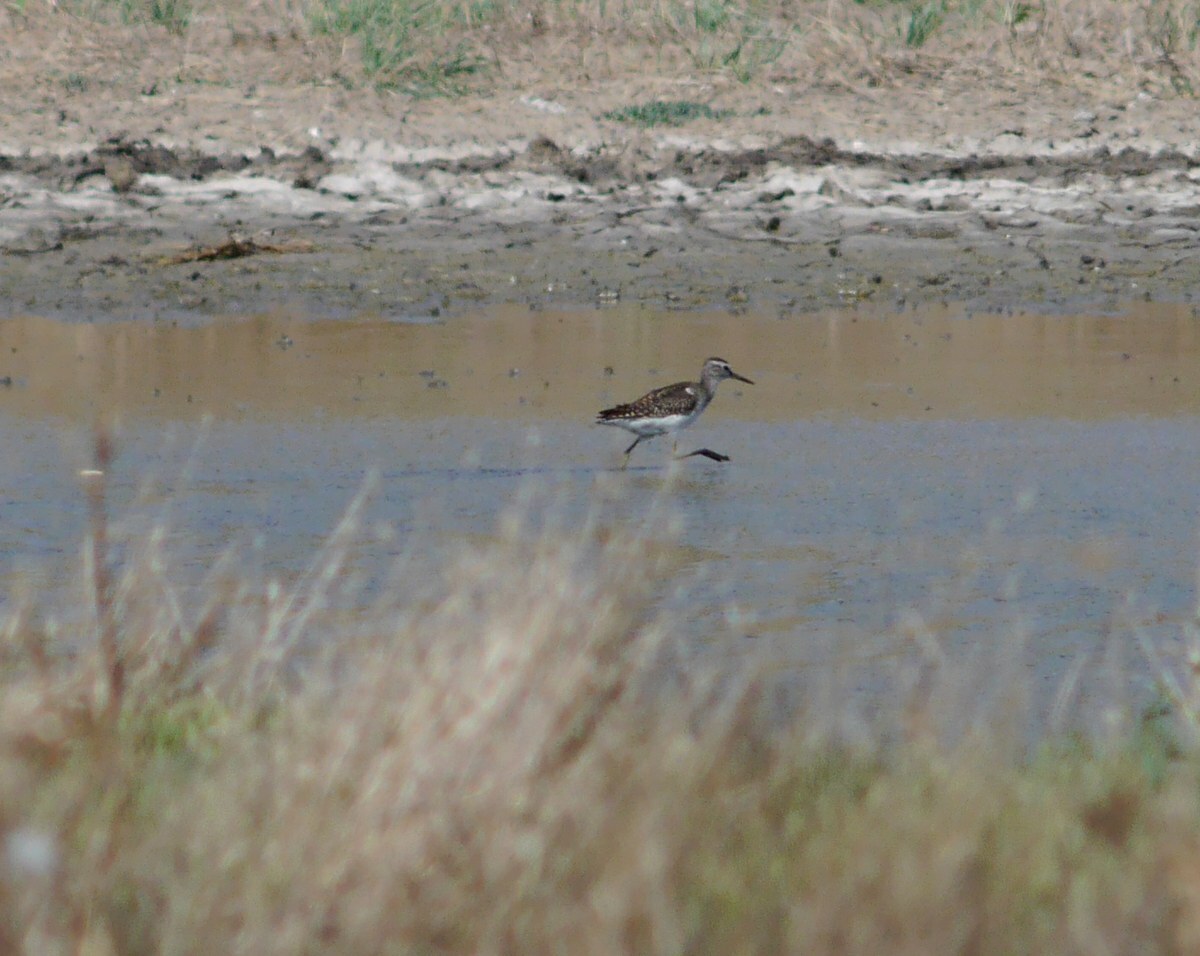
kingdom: Animalia
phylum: Chordata
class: Aves
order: Charadriiformes
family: Scolopacidae
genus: Tringa
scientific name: Tringa glareola
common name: Wood sandpiper
